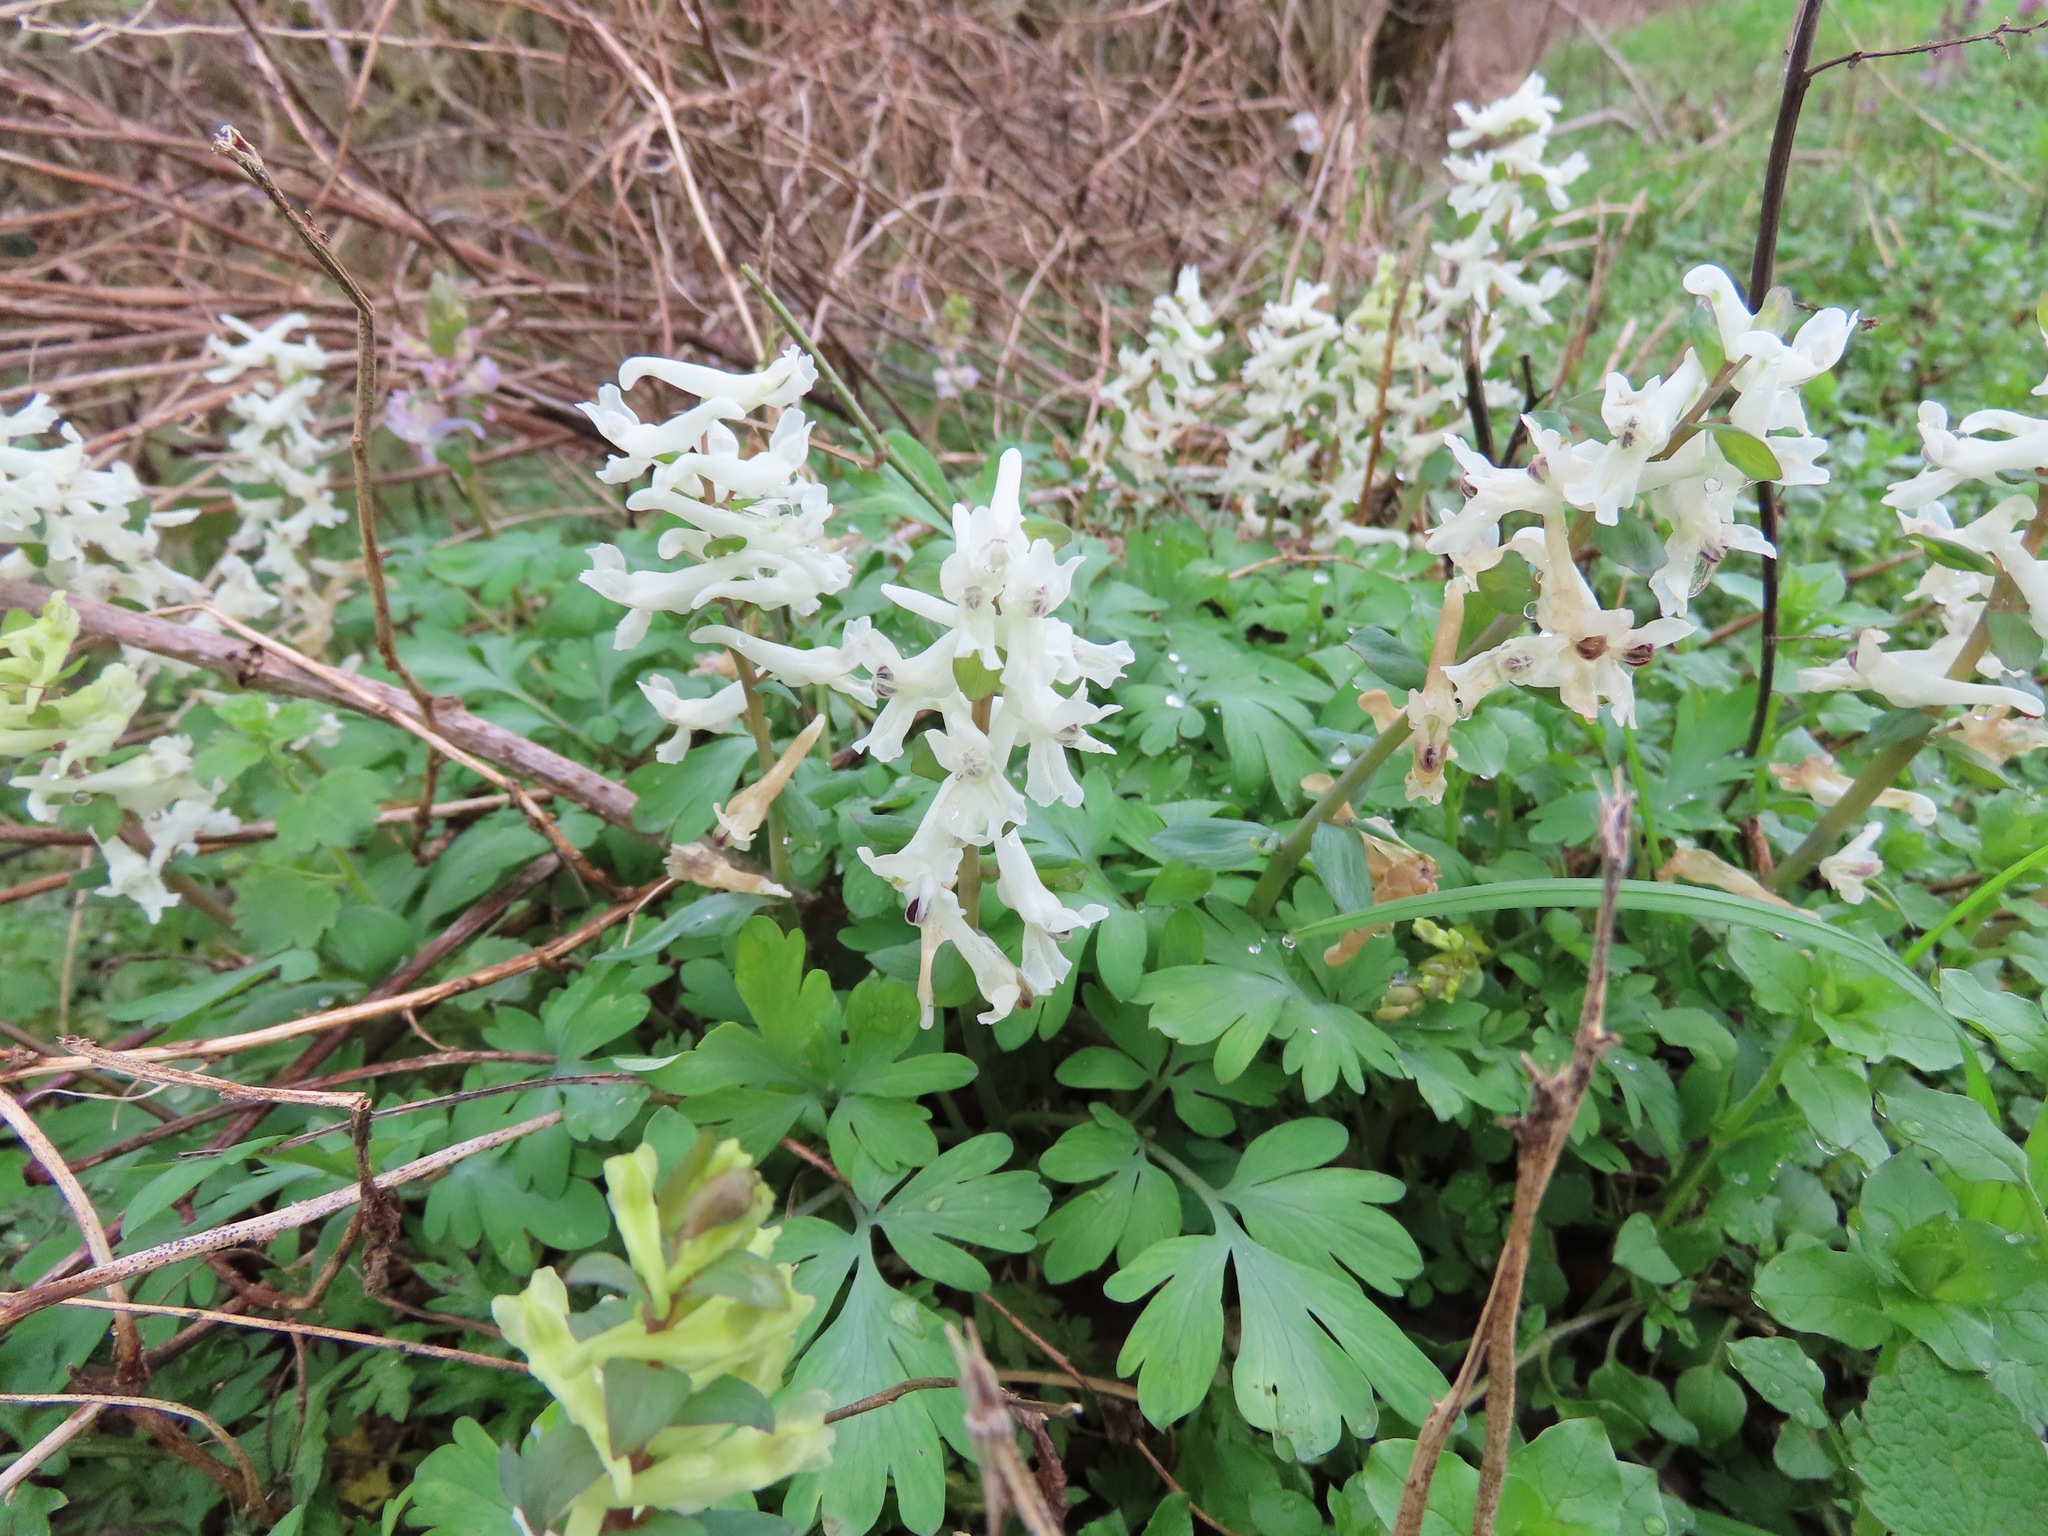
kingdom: Plantae
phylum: Tracheophyta
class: Magnoliopsida
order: Ranunculales
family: Papaveraceae
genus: Corydalis
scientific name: Corydalis cava
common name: Hollowroot
